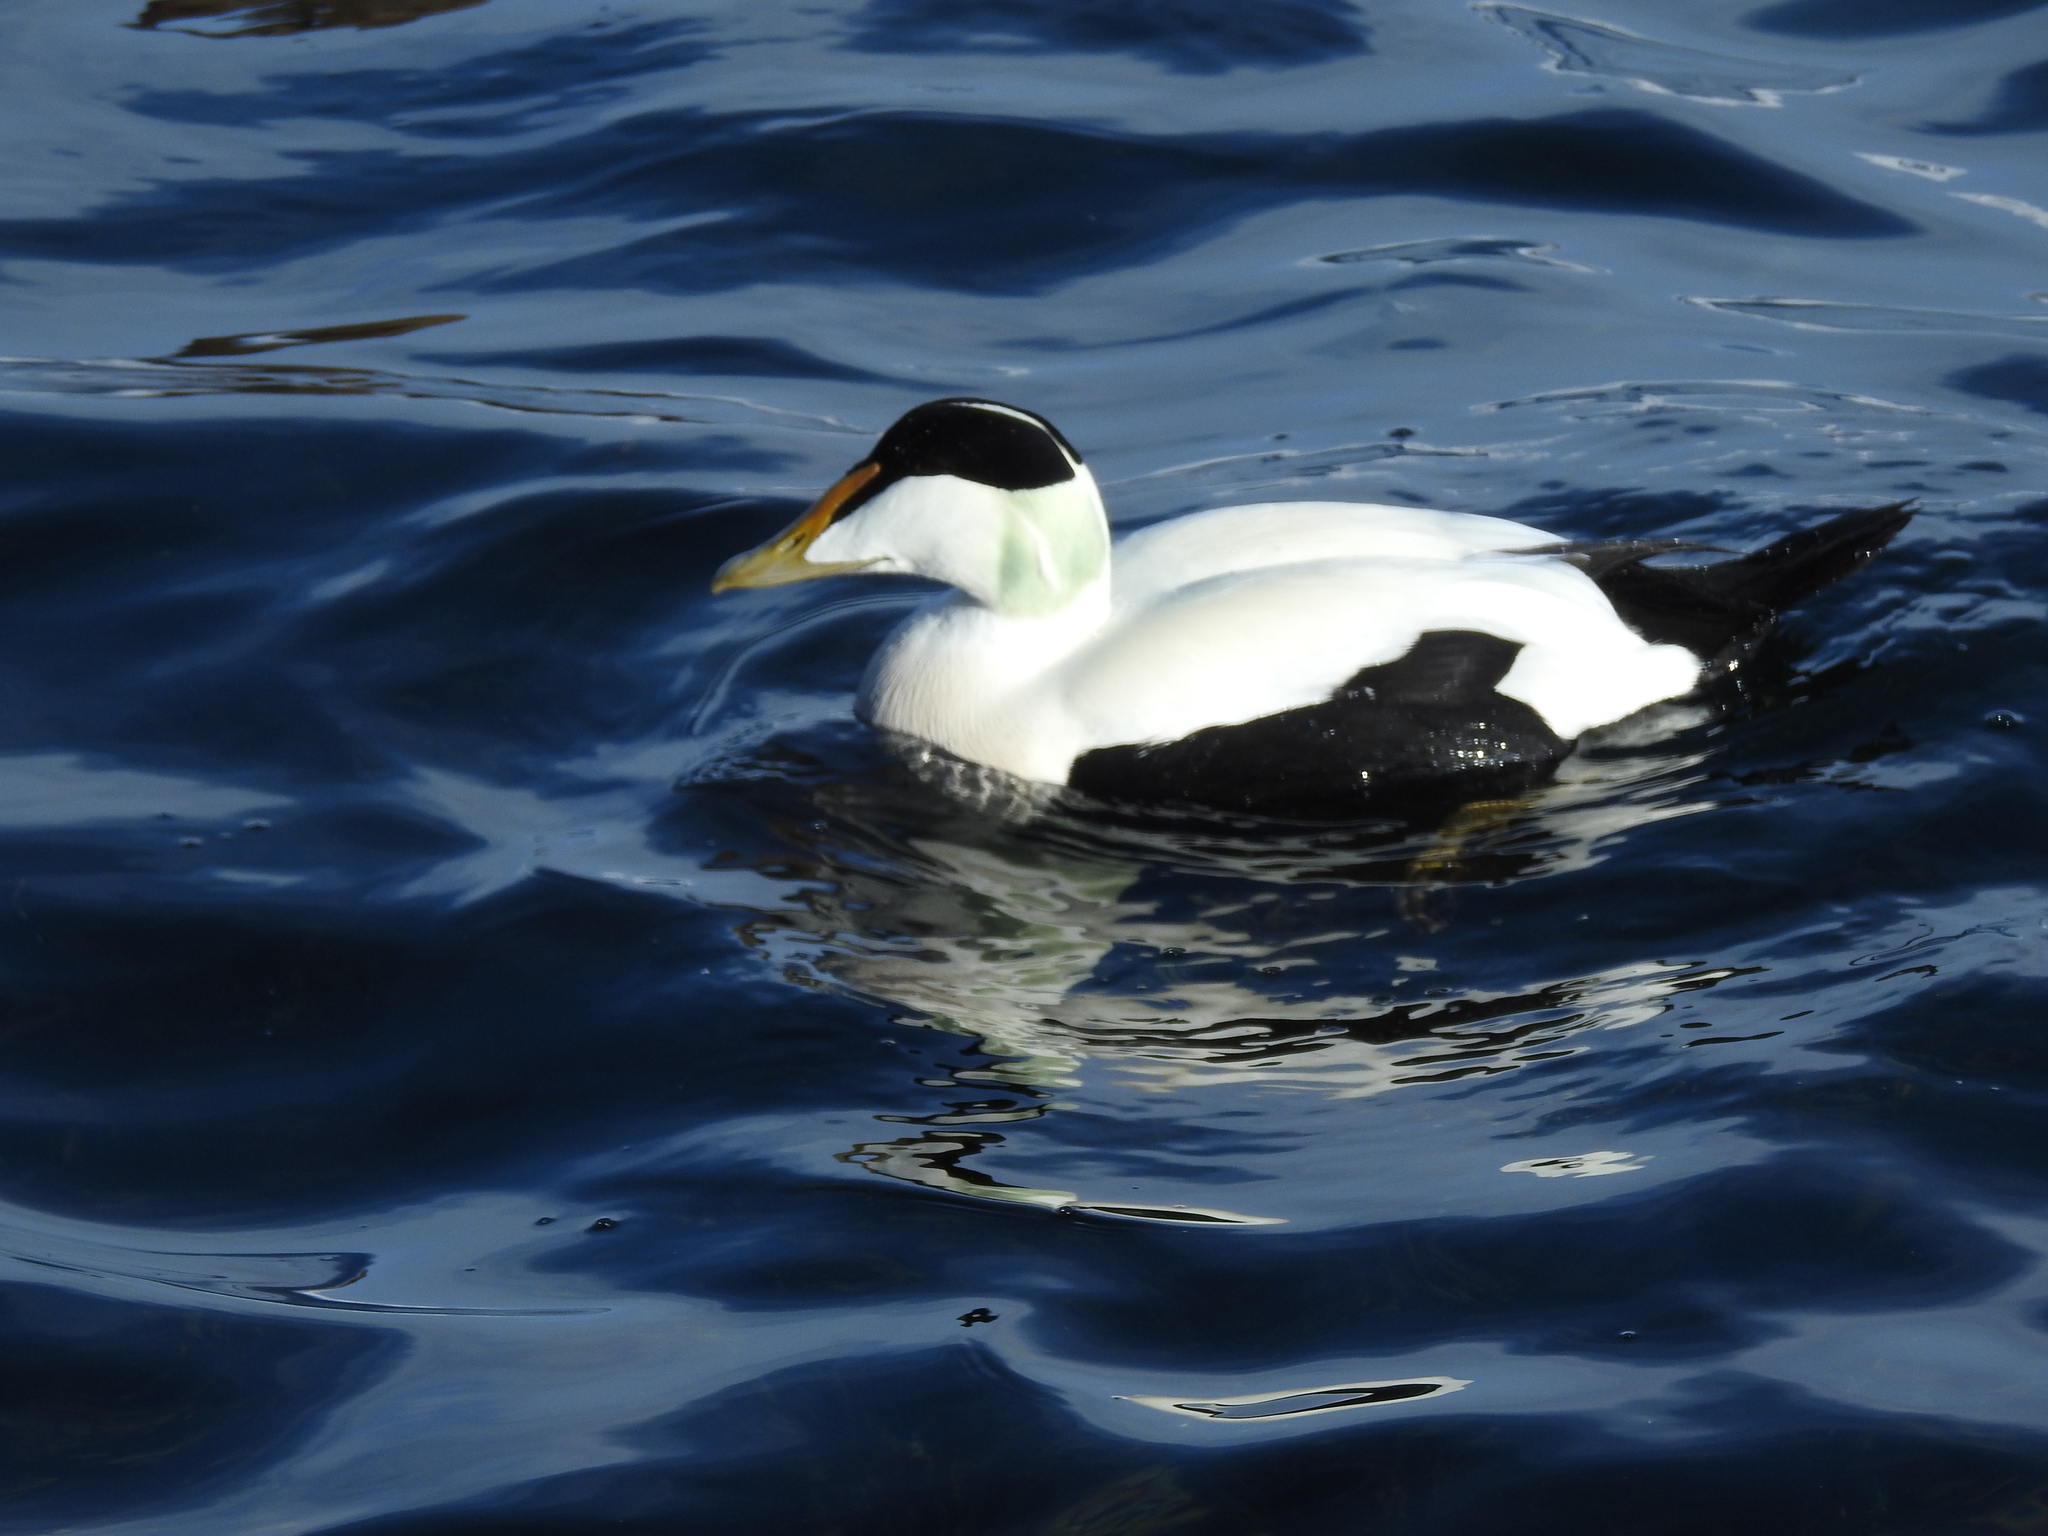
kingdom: Animalia
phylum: Chordata
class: Aves
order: Anseriformes
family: Anatidae
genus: Somateria
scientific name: Somateria mollissima
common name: Common eider
